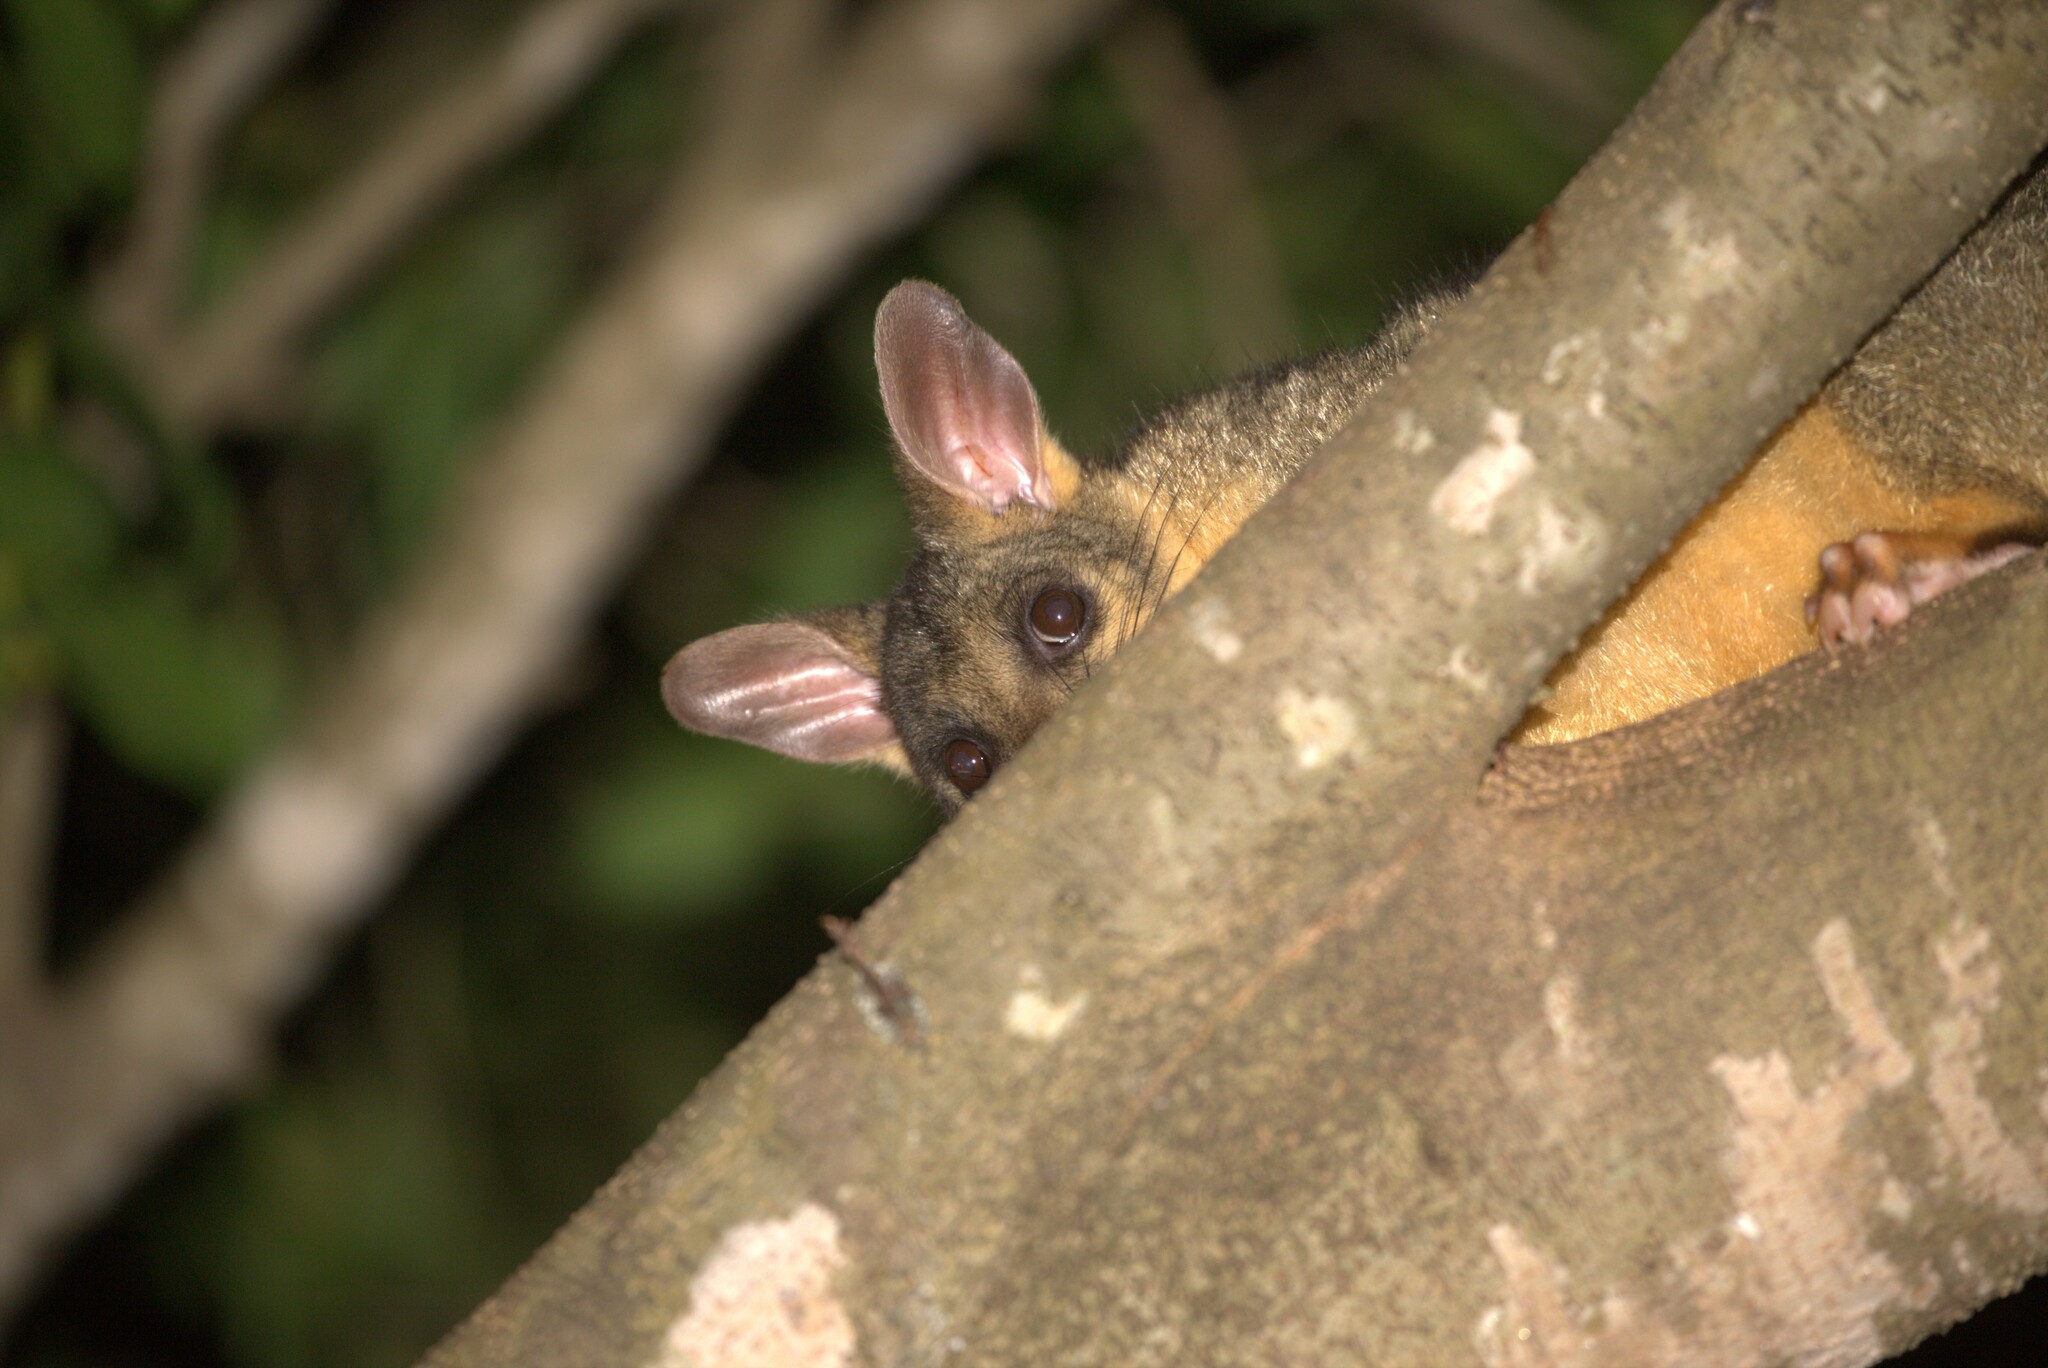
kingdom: Animalia
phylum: Chordata
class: Mammalia
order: Diprotodontia
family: Phalangeridae
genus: Trichosurus
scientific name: Trichosurus vulpecula
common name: Common brushtail
